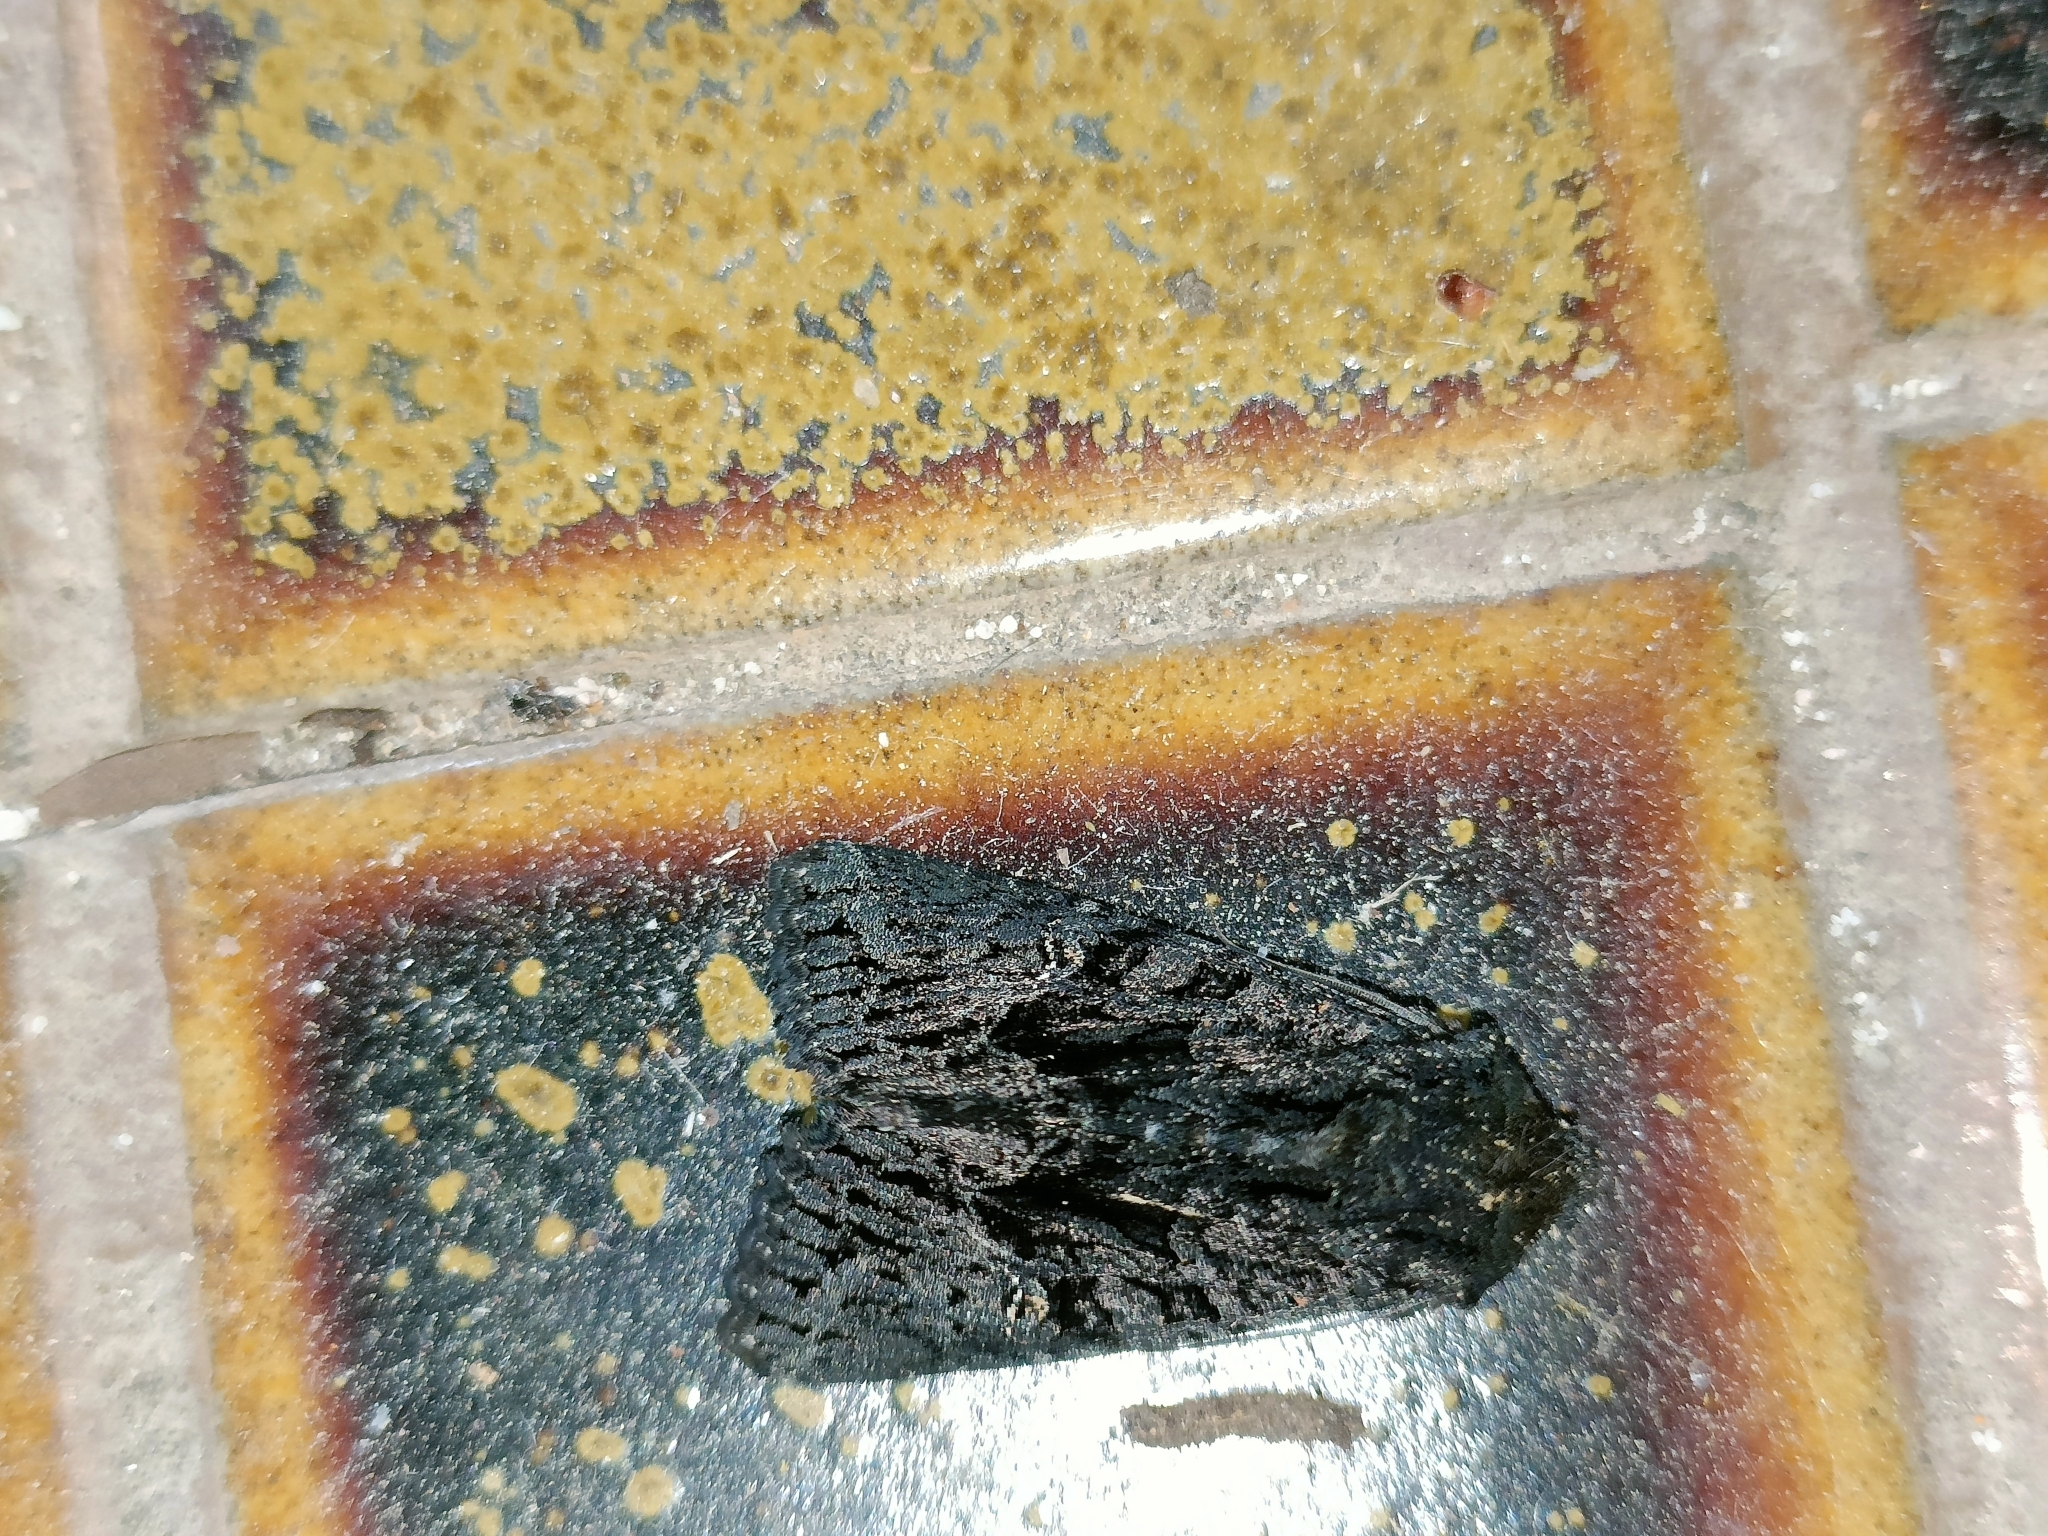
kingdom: Animalia
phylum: Arthropoda
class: Insecta
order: Lepidoptera
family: Noctuidae
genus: Neumichtis
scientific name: Neumichtis nigerrima
